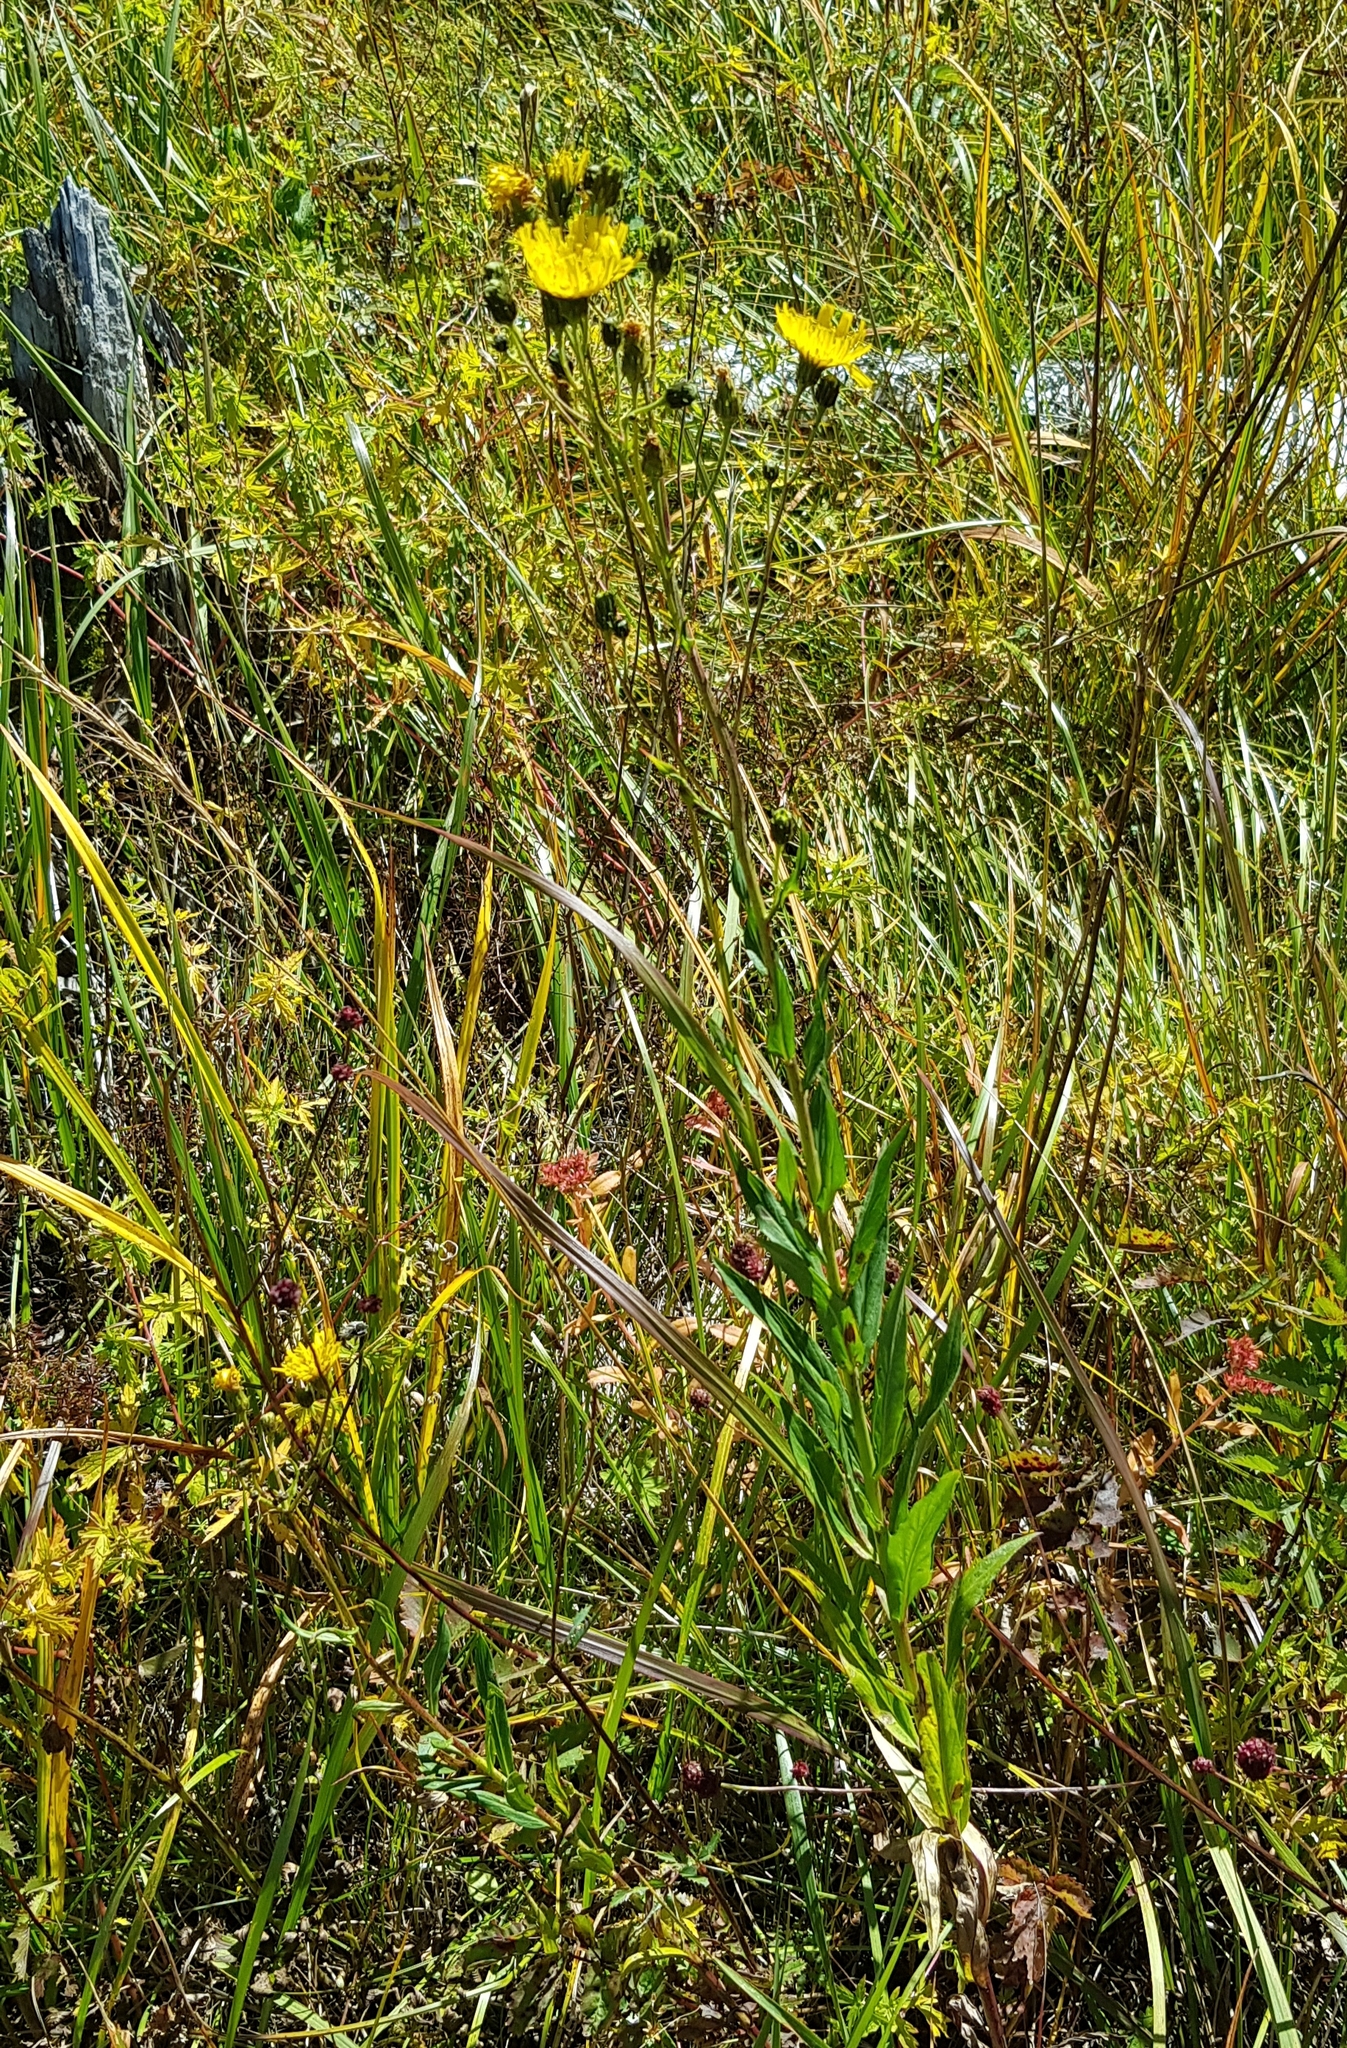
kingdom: Plantae
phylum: Tracheophyta
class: Magnoliopsida
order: Asterales
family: Asteraceae
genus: Hieracium
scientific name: Hieracium umbellatum
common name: Northern hawkweed
